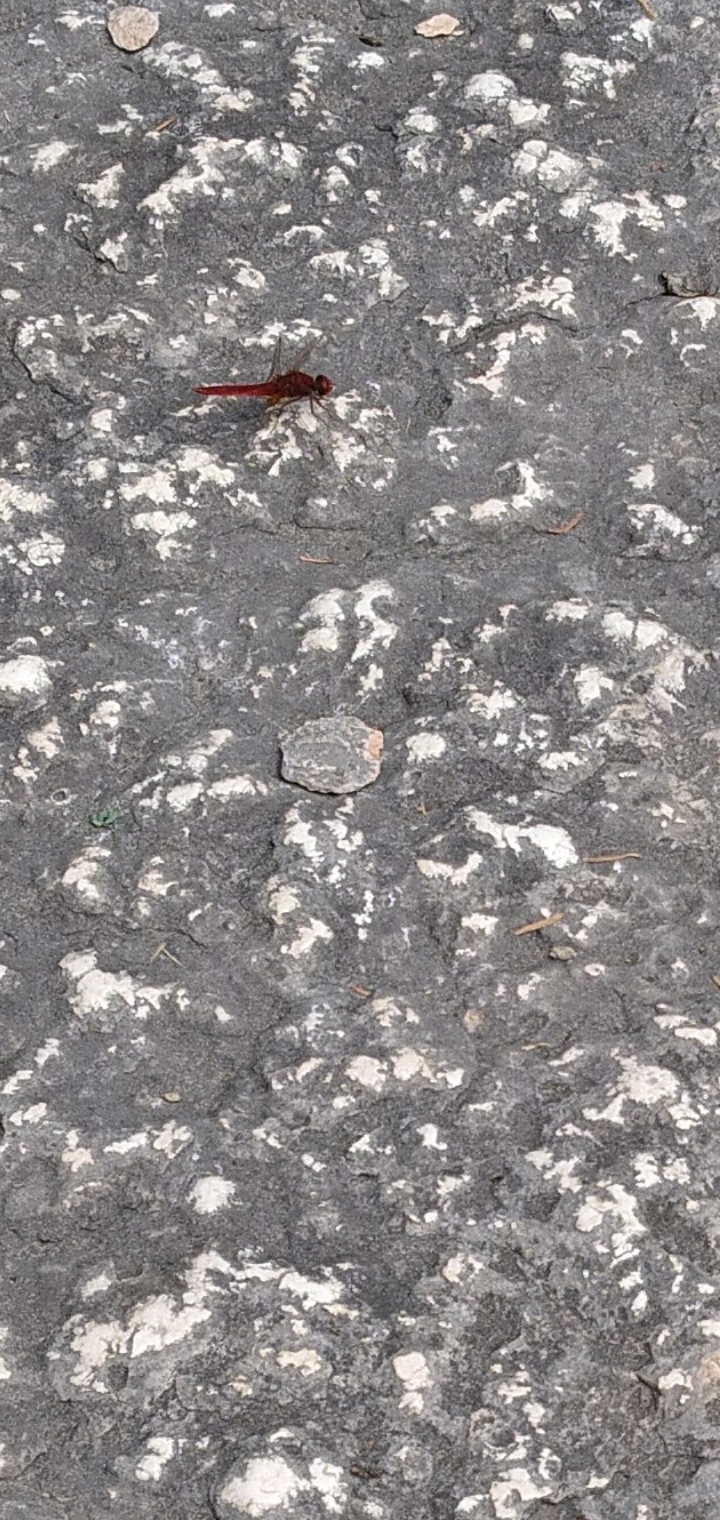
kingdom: Animalia
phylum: Arthropoda
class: Insecta
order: Odonata
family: Libellulidae
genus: Crocothemis
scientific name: Crocothemis erythraea
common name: Scarlet dragonfly
